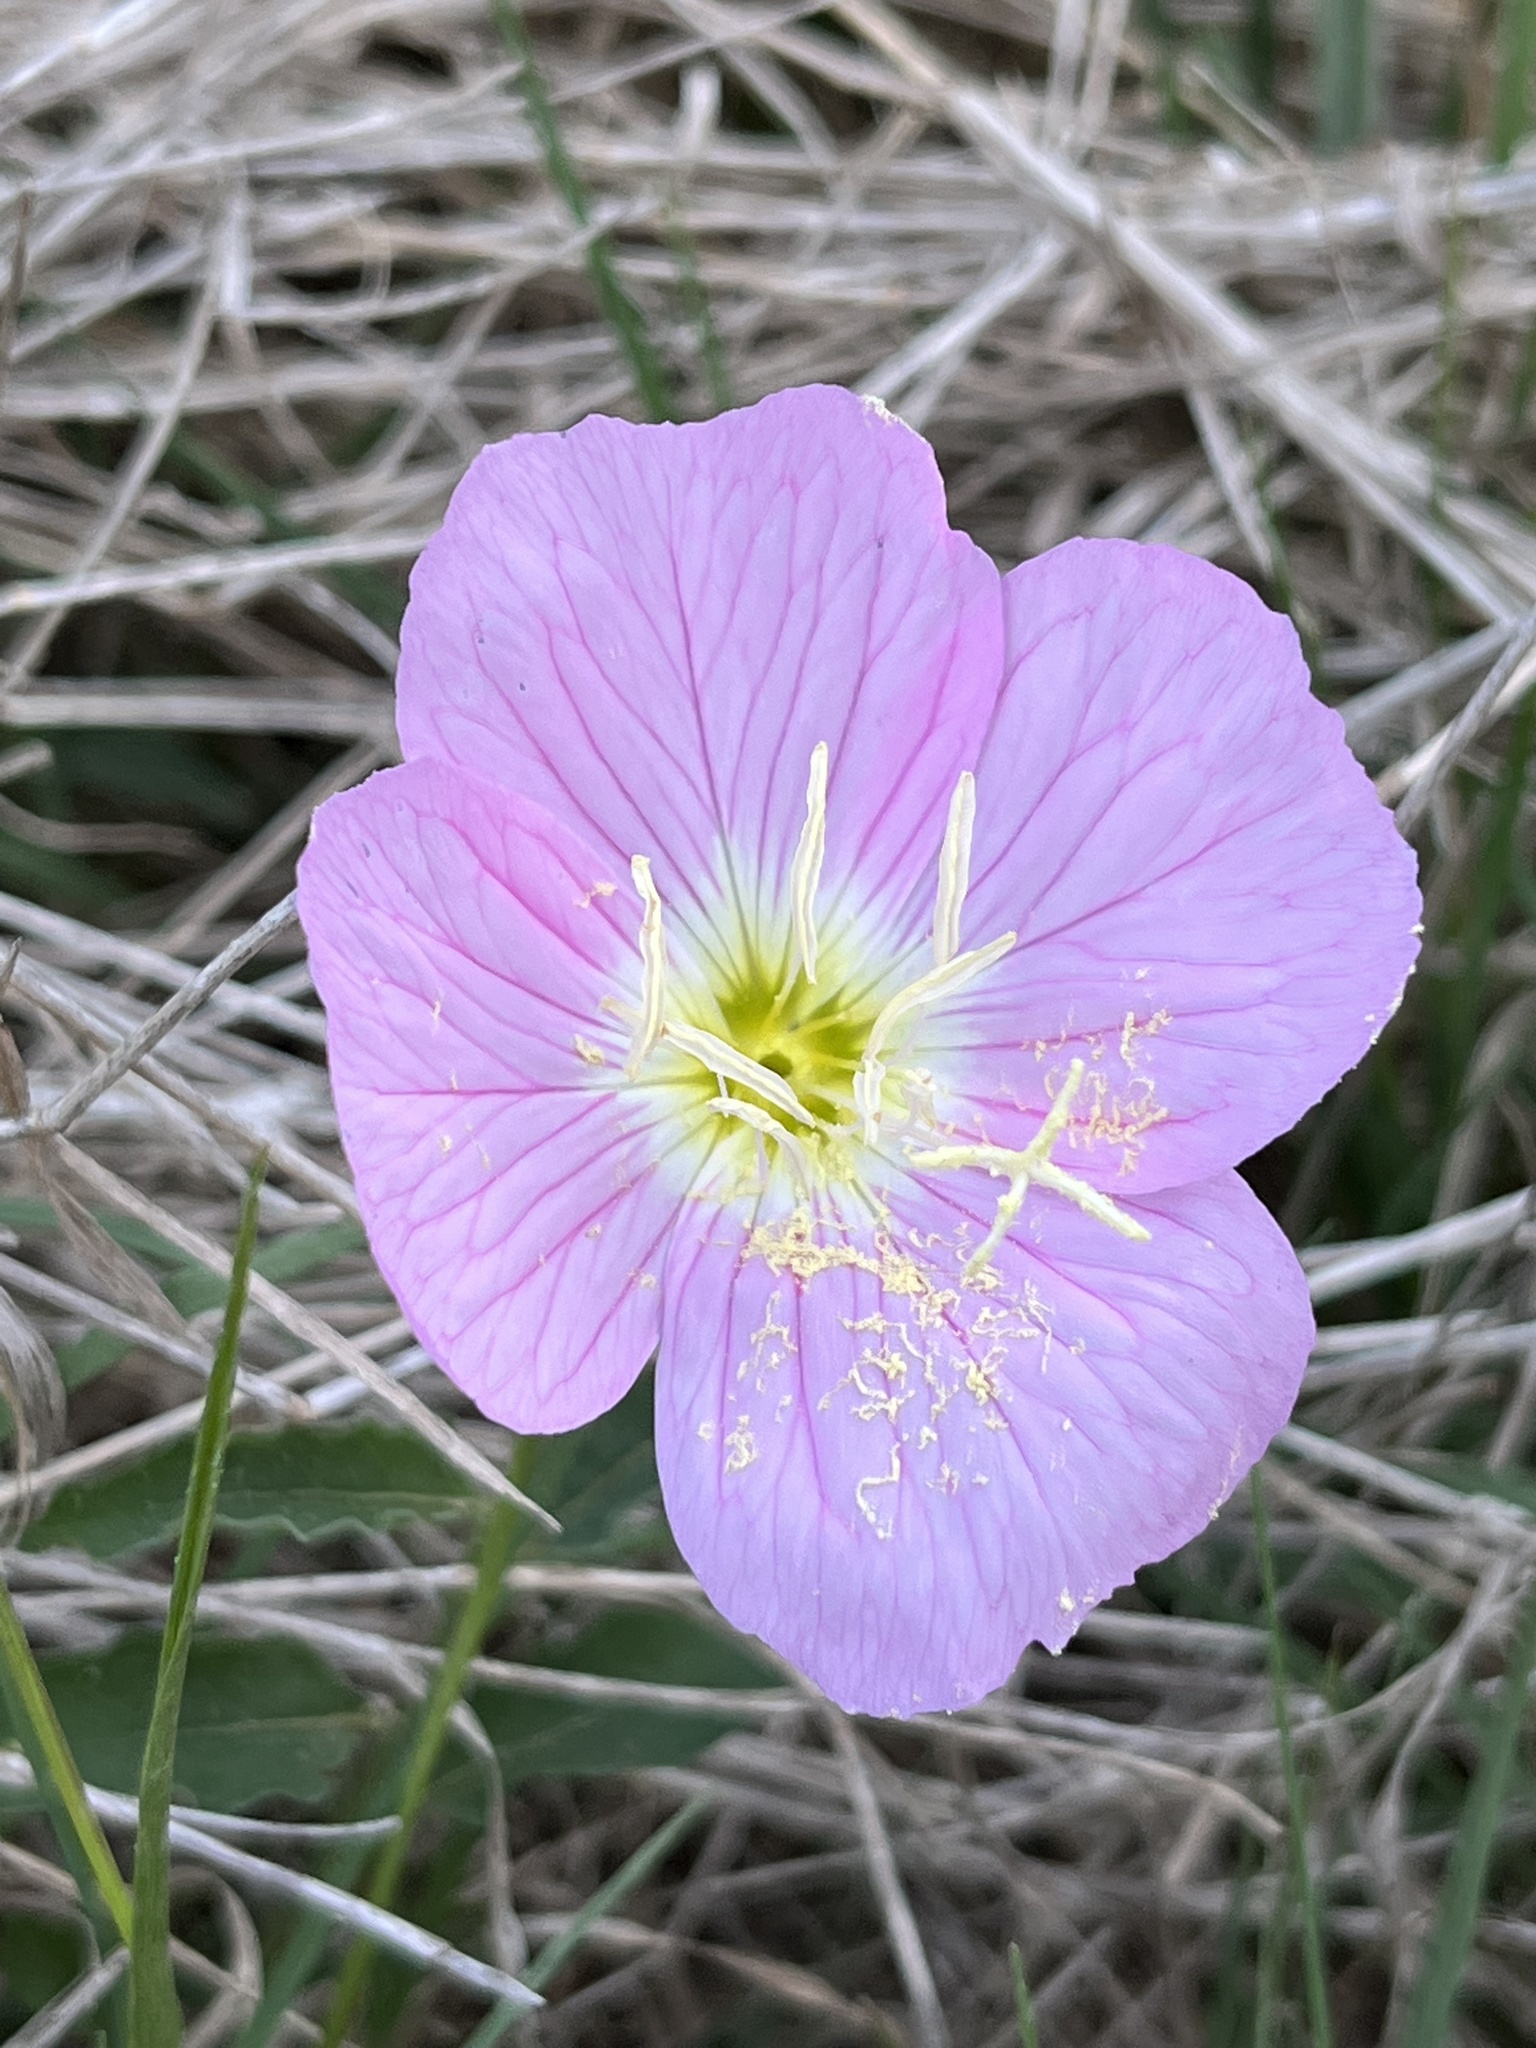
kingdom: Plantae
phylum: Tracheophyta
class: Magnoliopsida
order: Myrtales
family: Onagraceae
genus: Oenothera
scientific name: Oenothera speciosa
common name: White evening-primrose
